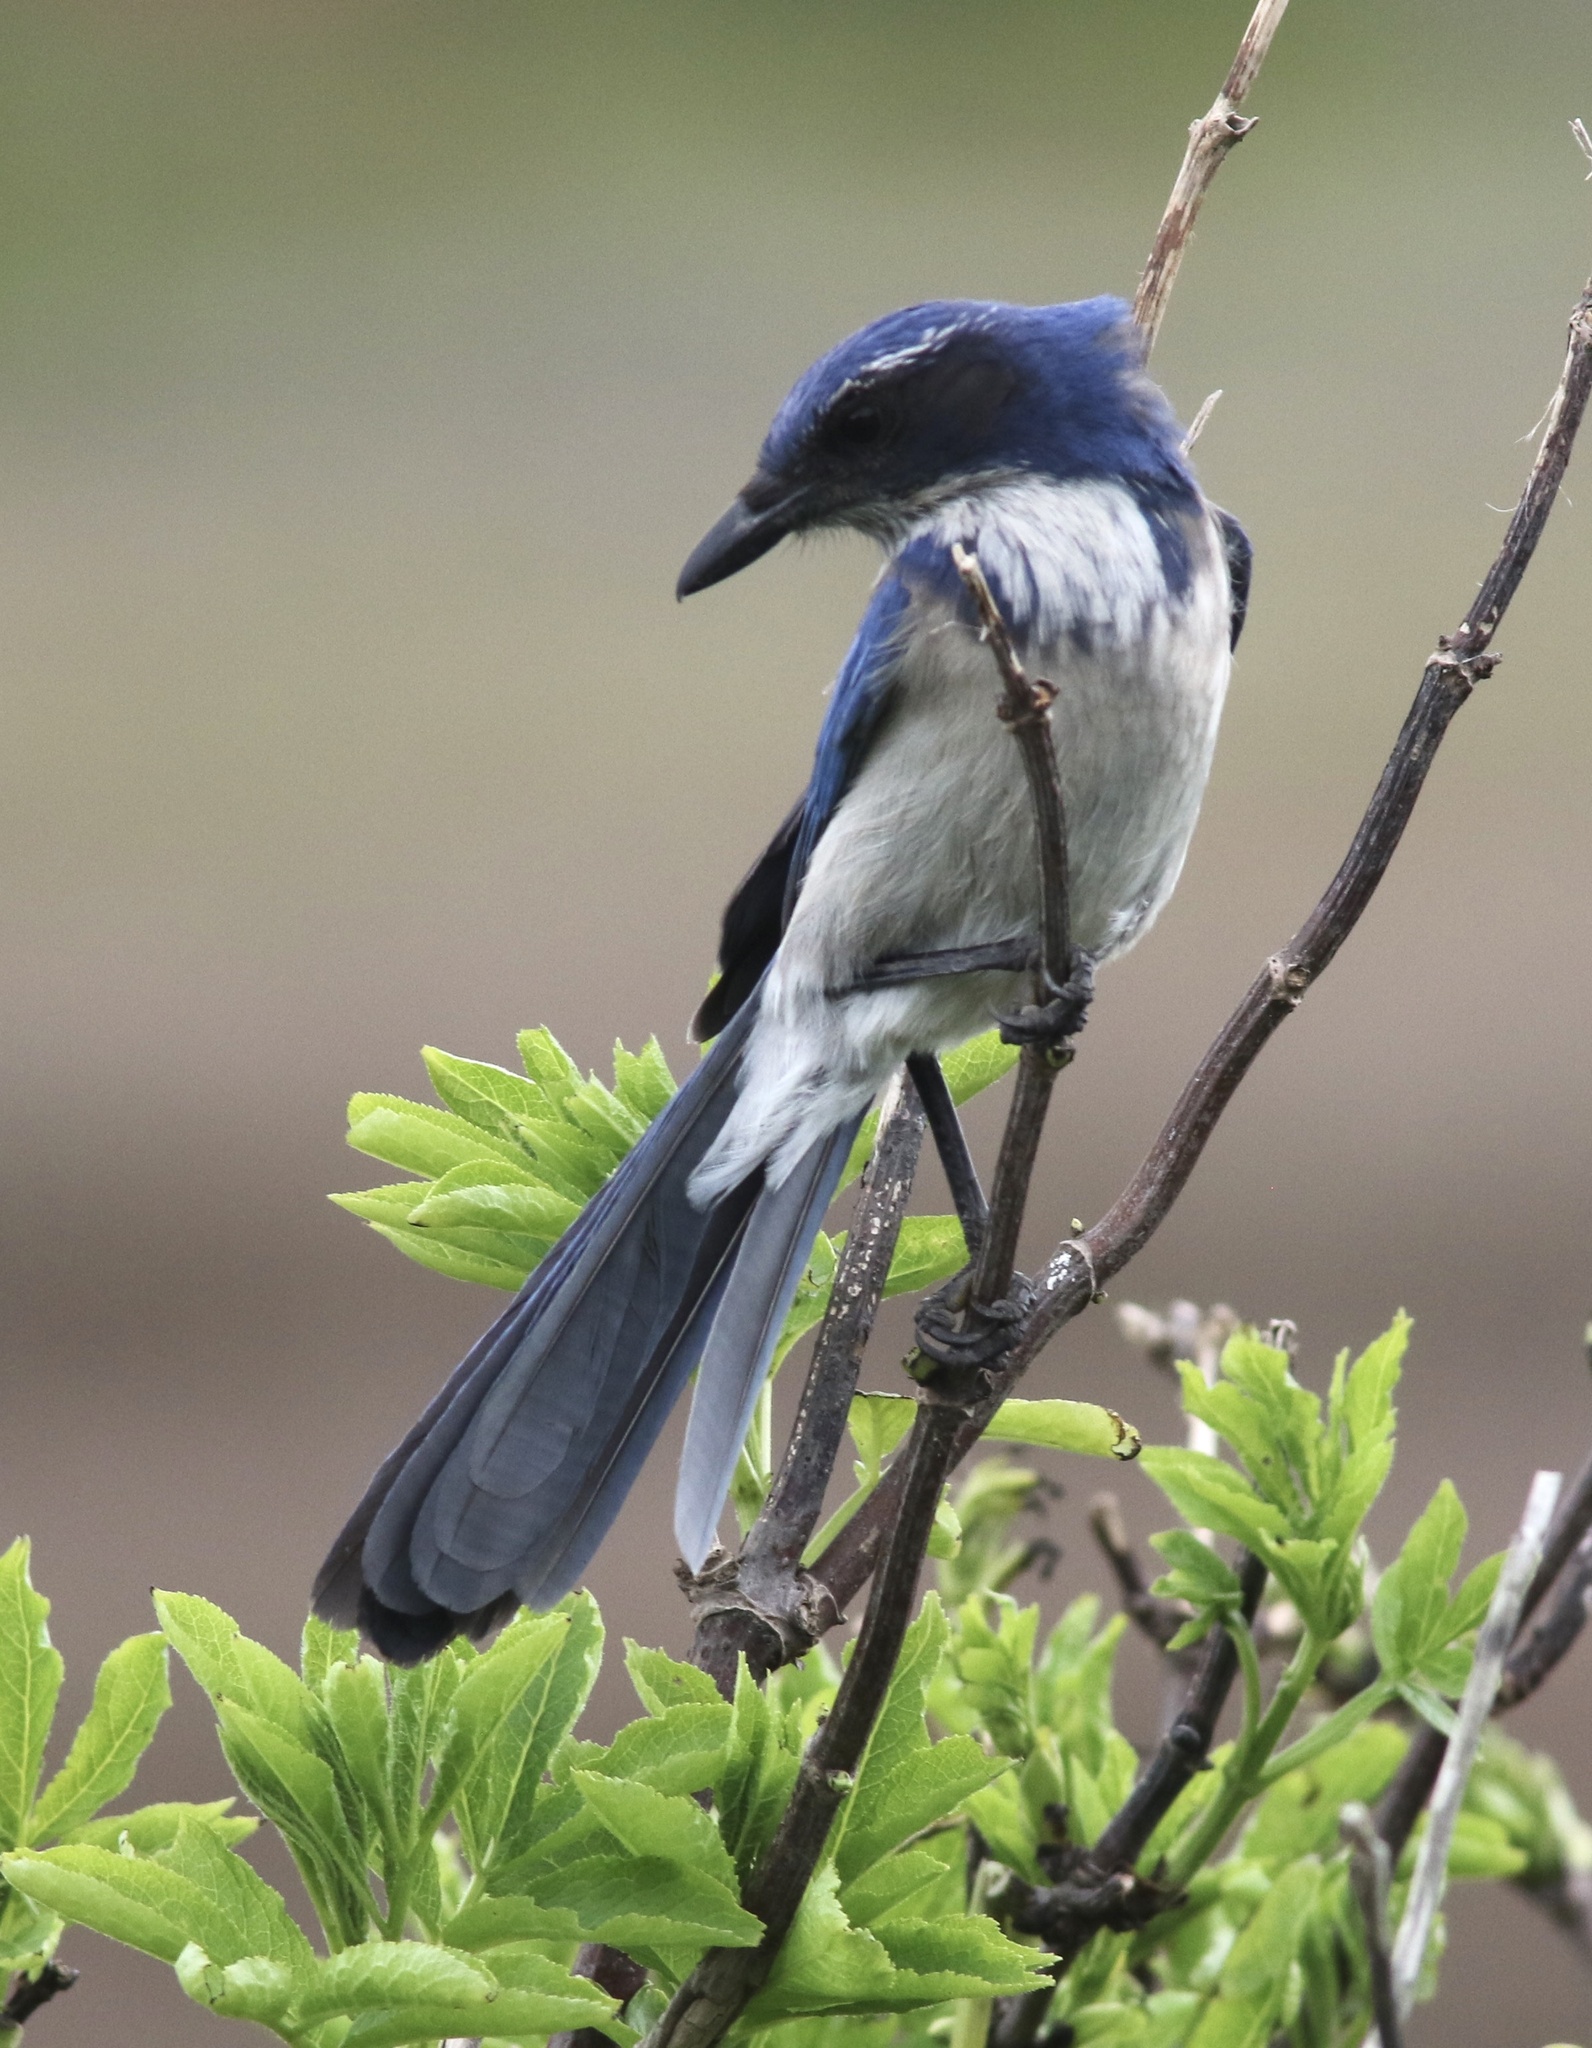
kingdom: Animalia
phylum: Chordata
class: Aves
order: Passeriformes
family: Corvidae
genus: Aphelocoma
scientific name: Aphelocoma californica
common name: California scrub-jay
